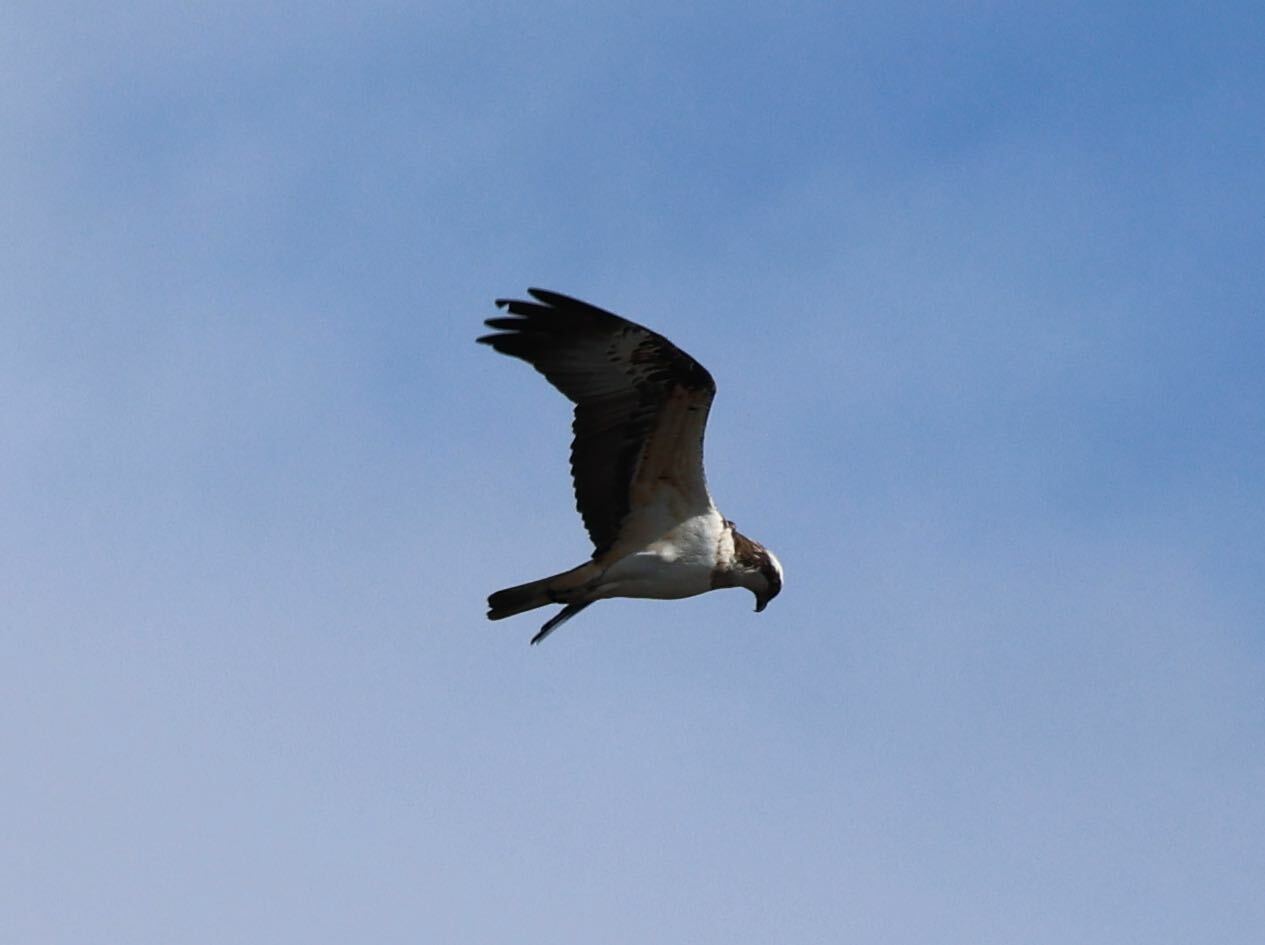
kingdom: Animalia
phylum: Chordata
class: Aves
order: Accipitriformes
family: Pandionidae
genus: Pandion
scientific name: Pandion haliaetus
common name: Osprey
